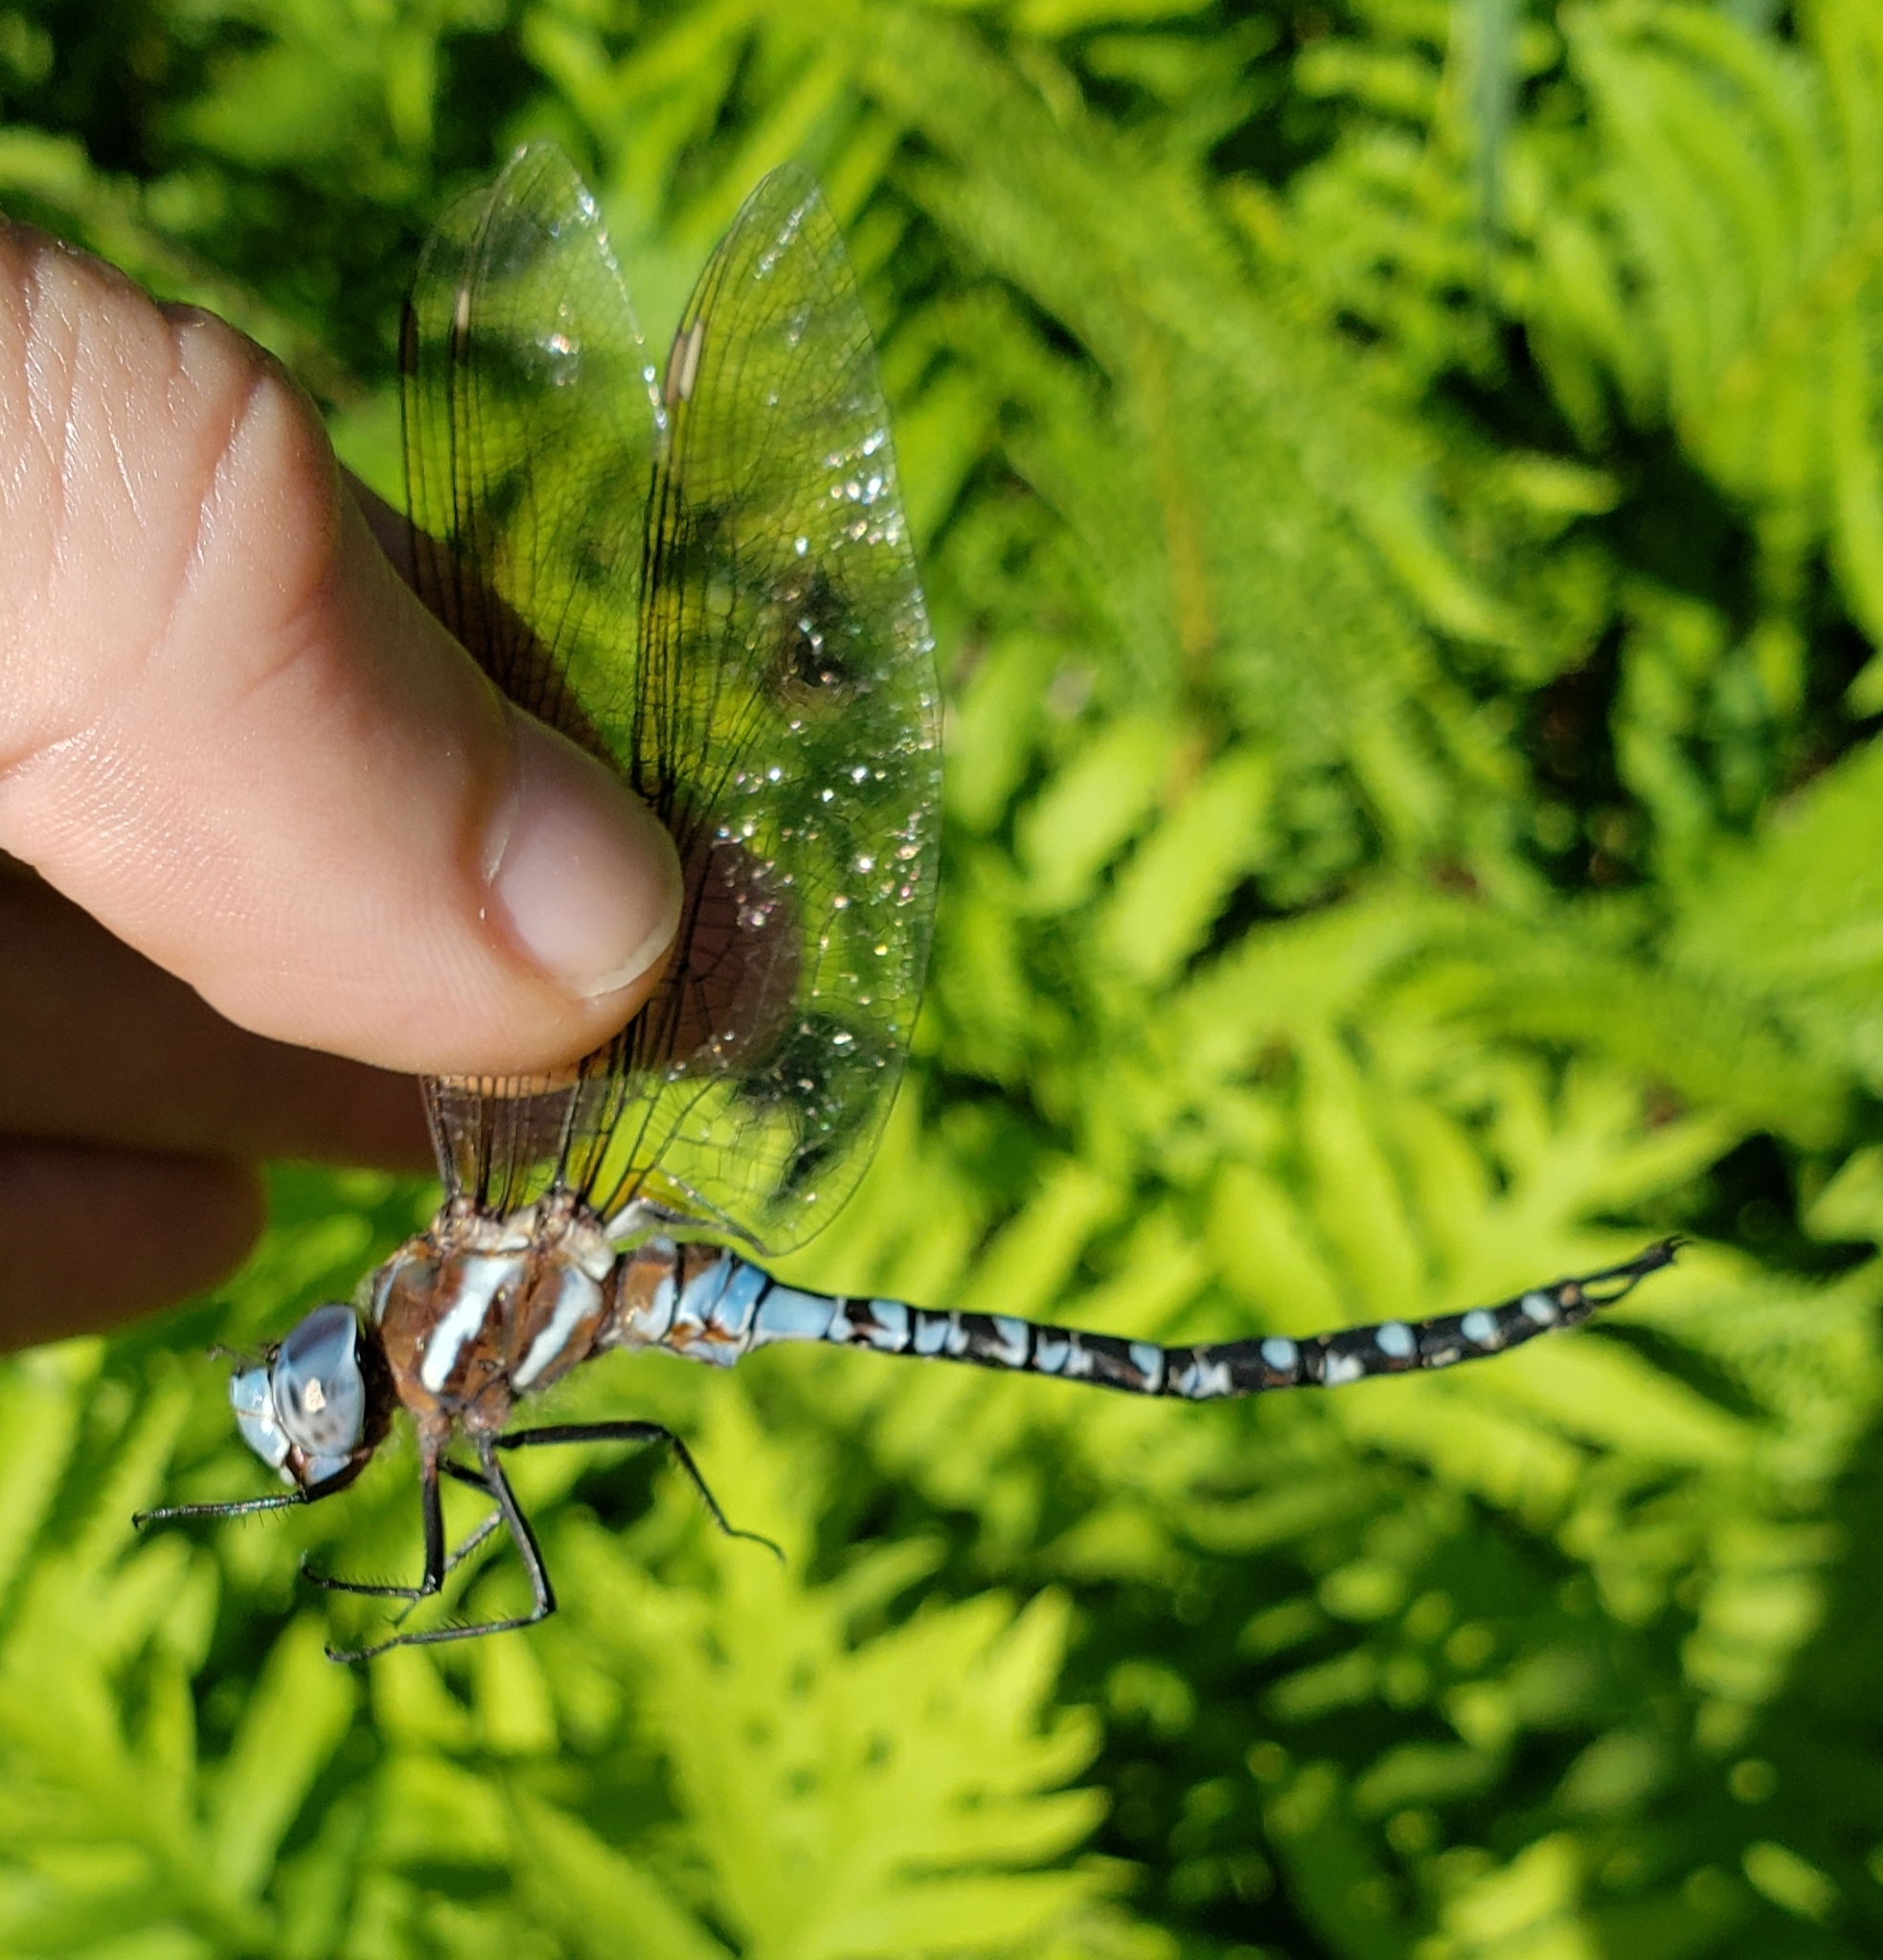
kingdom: Animalia
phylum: Arthropoda
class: Insecta
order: Odonata
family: Aeshnidae
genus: Rhionaeschna
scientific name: Rhionaeschna mutata
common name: Spatterdock darner
